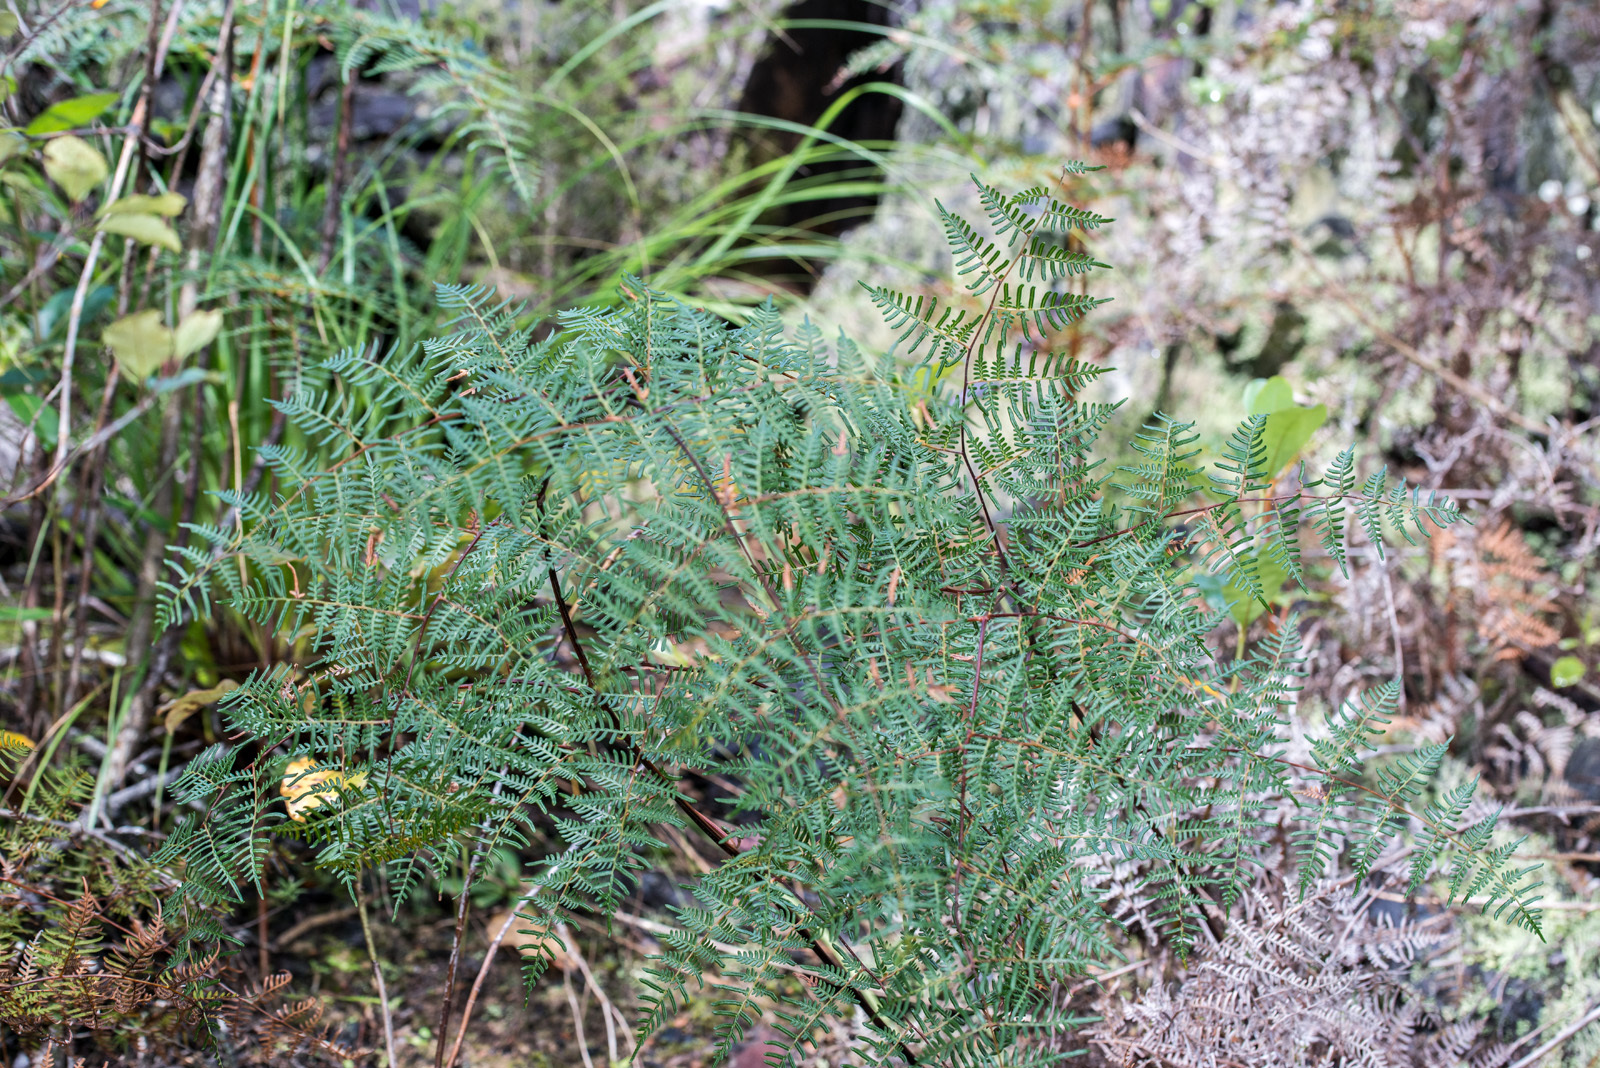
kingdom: Plantae
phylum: Tracheophyta
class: Polypodiopsida
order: Polypodiales
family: Dennstaedtiaceae
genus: Pteridium
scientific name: Pteridium esculentum
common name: Bracken fern
